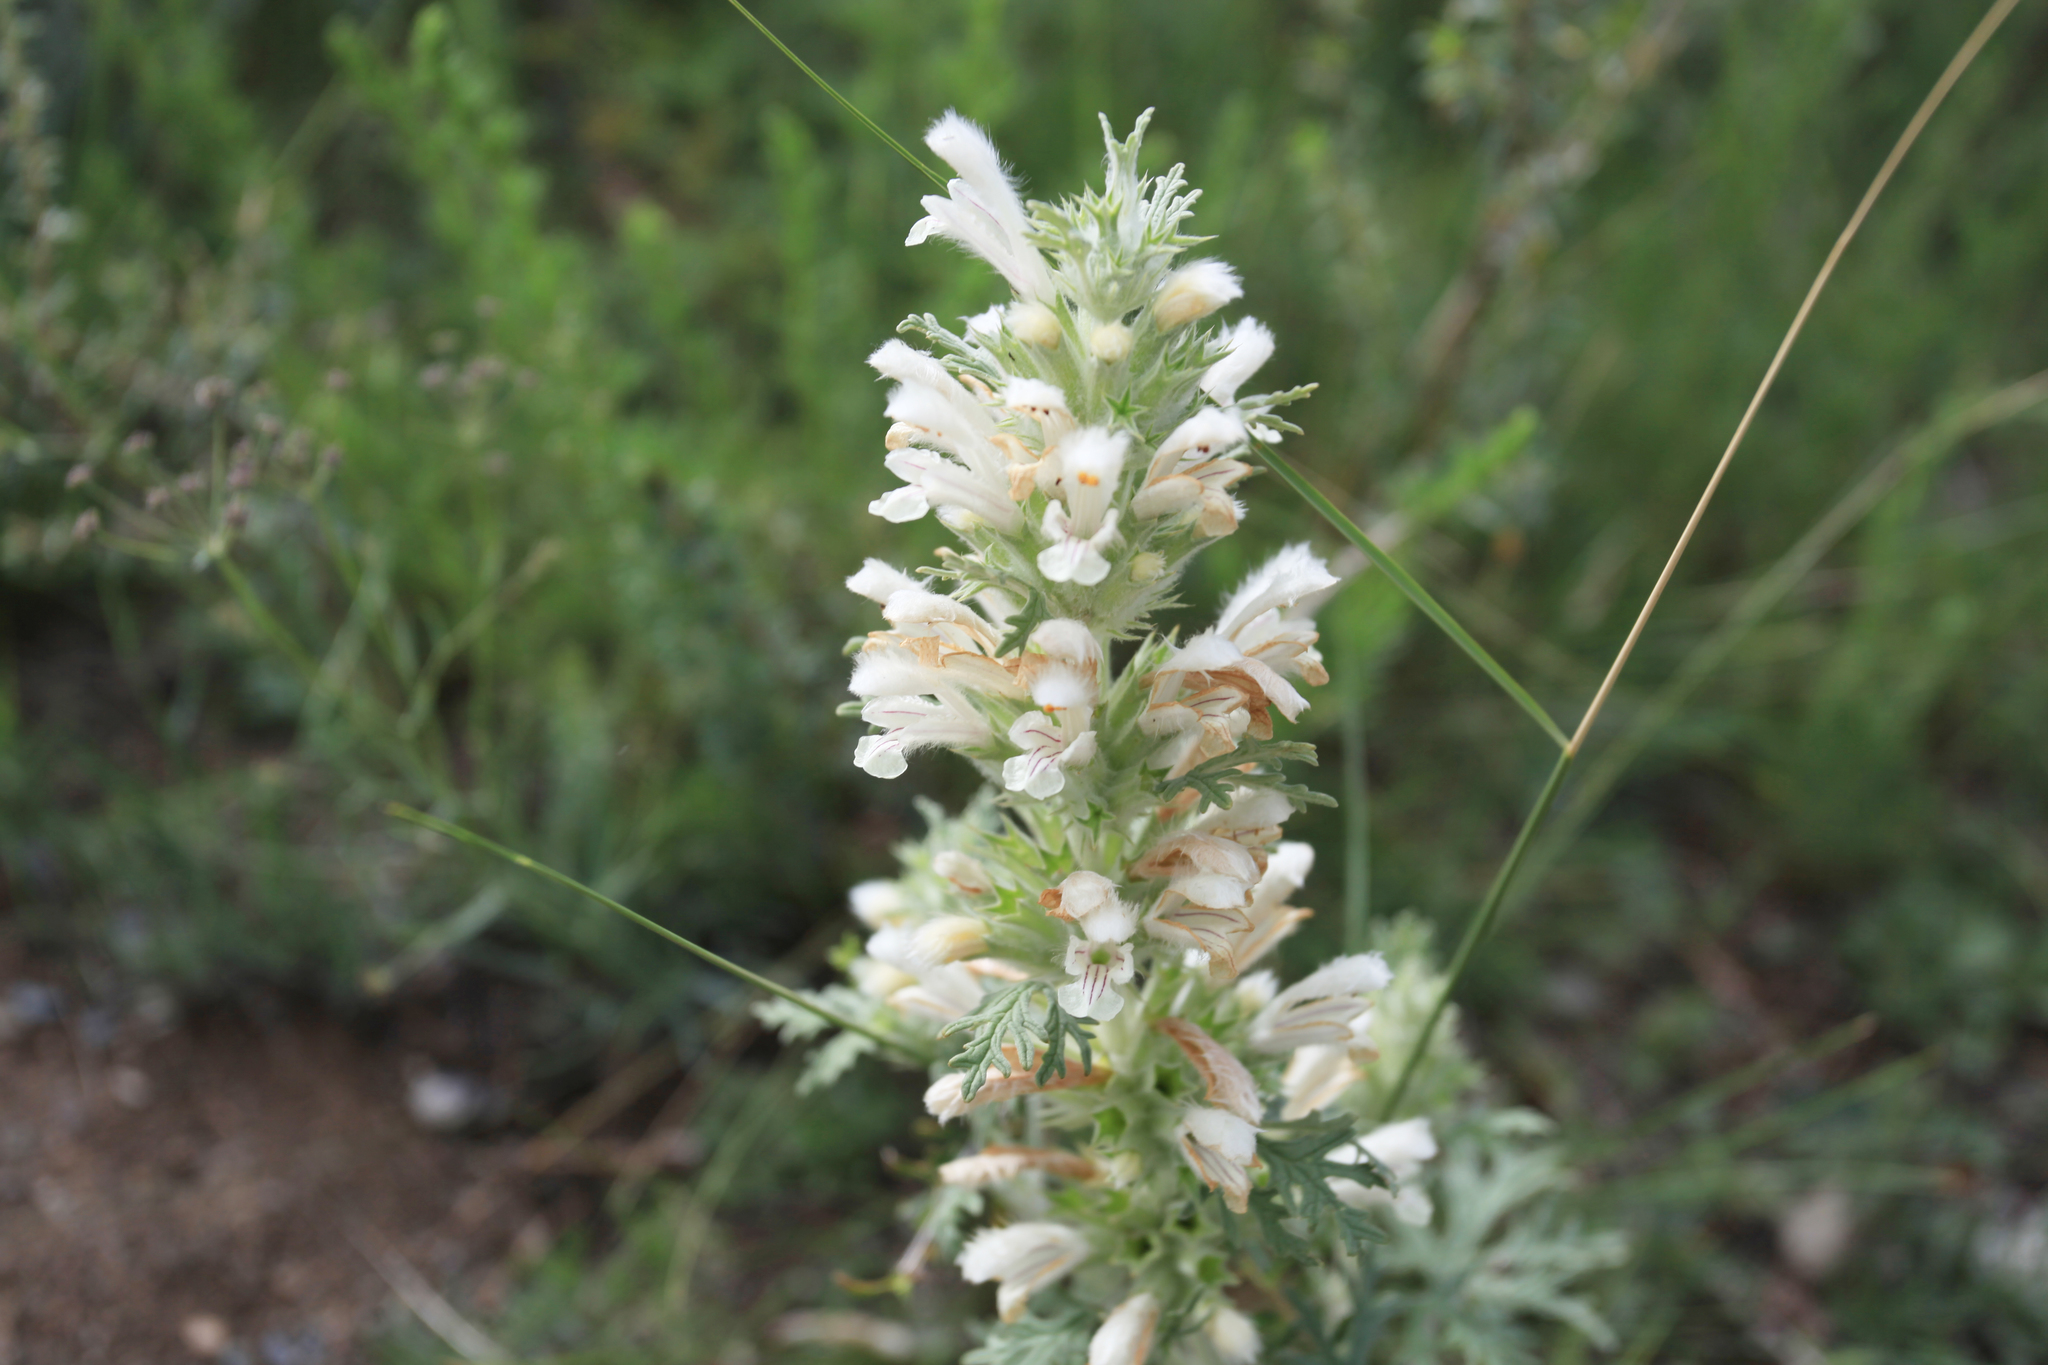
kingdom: Plantae
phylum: Tracheophyta
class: Magnoliopsida
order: Lamiales
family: Lamiaceae
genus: Panzerina
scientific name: Panzerina lanata
